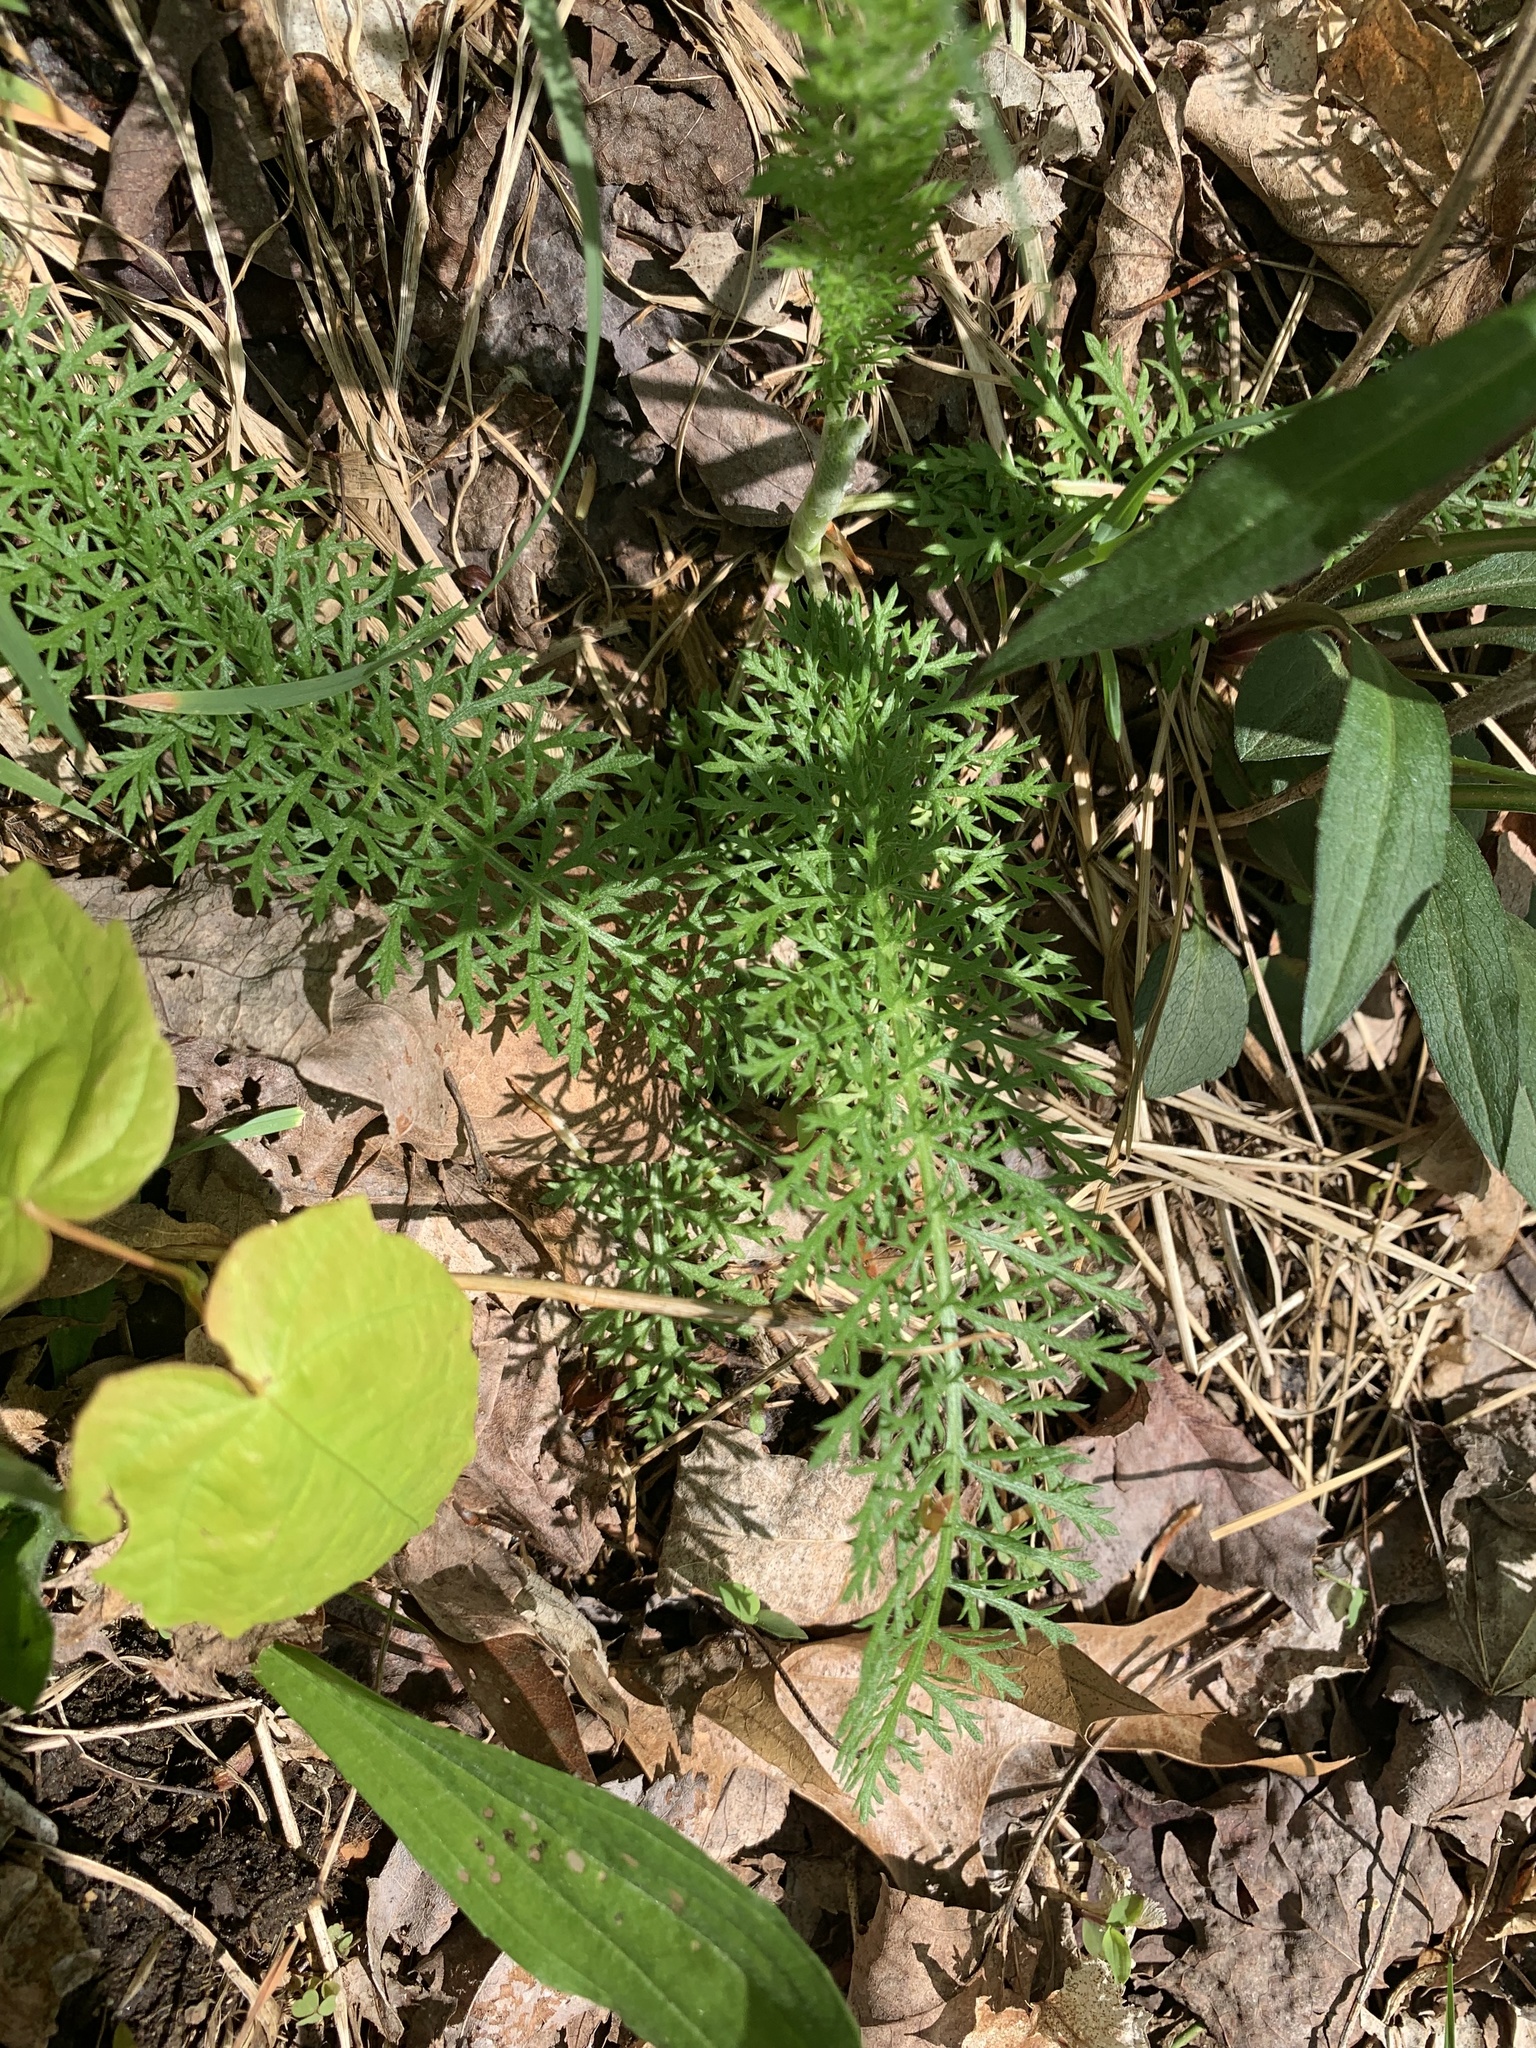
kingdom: Plantae
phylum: Tracheophyta
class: Magnoliopsida
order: Asterales
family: Asteraceae
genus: Achillea
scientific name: Achillea millefolium
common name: Yarrow
